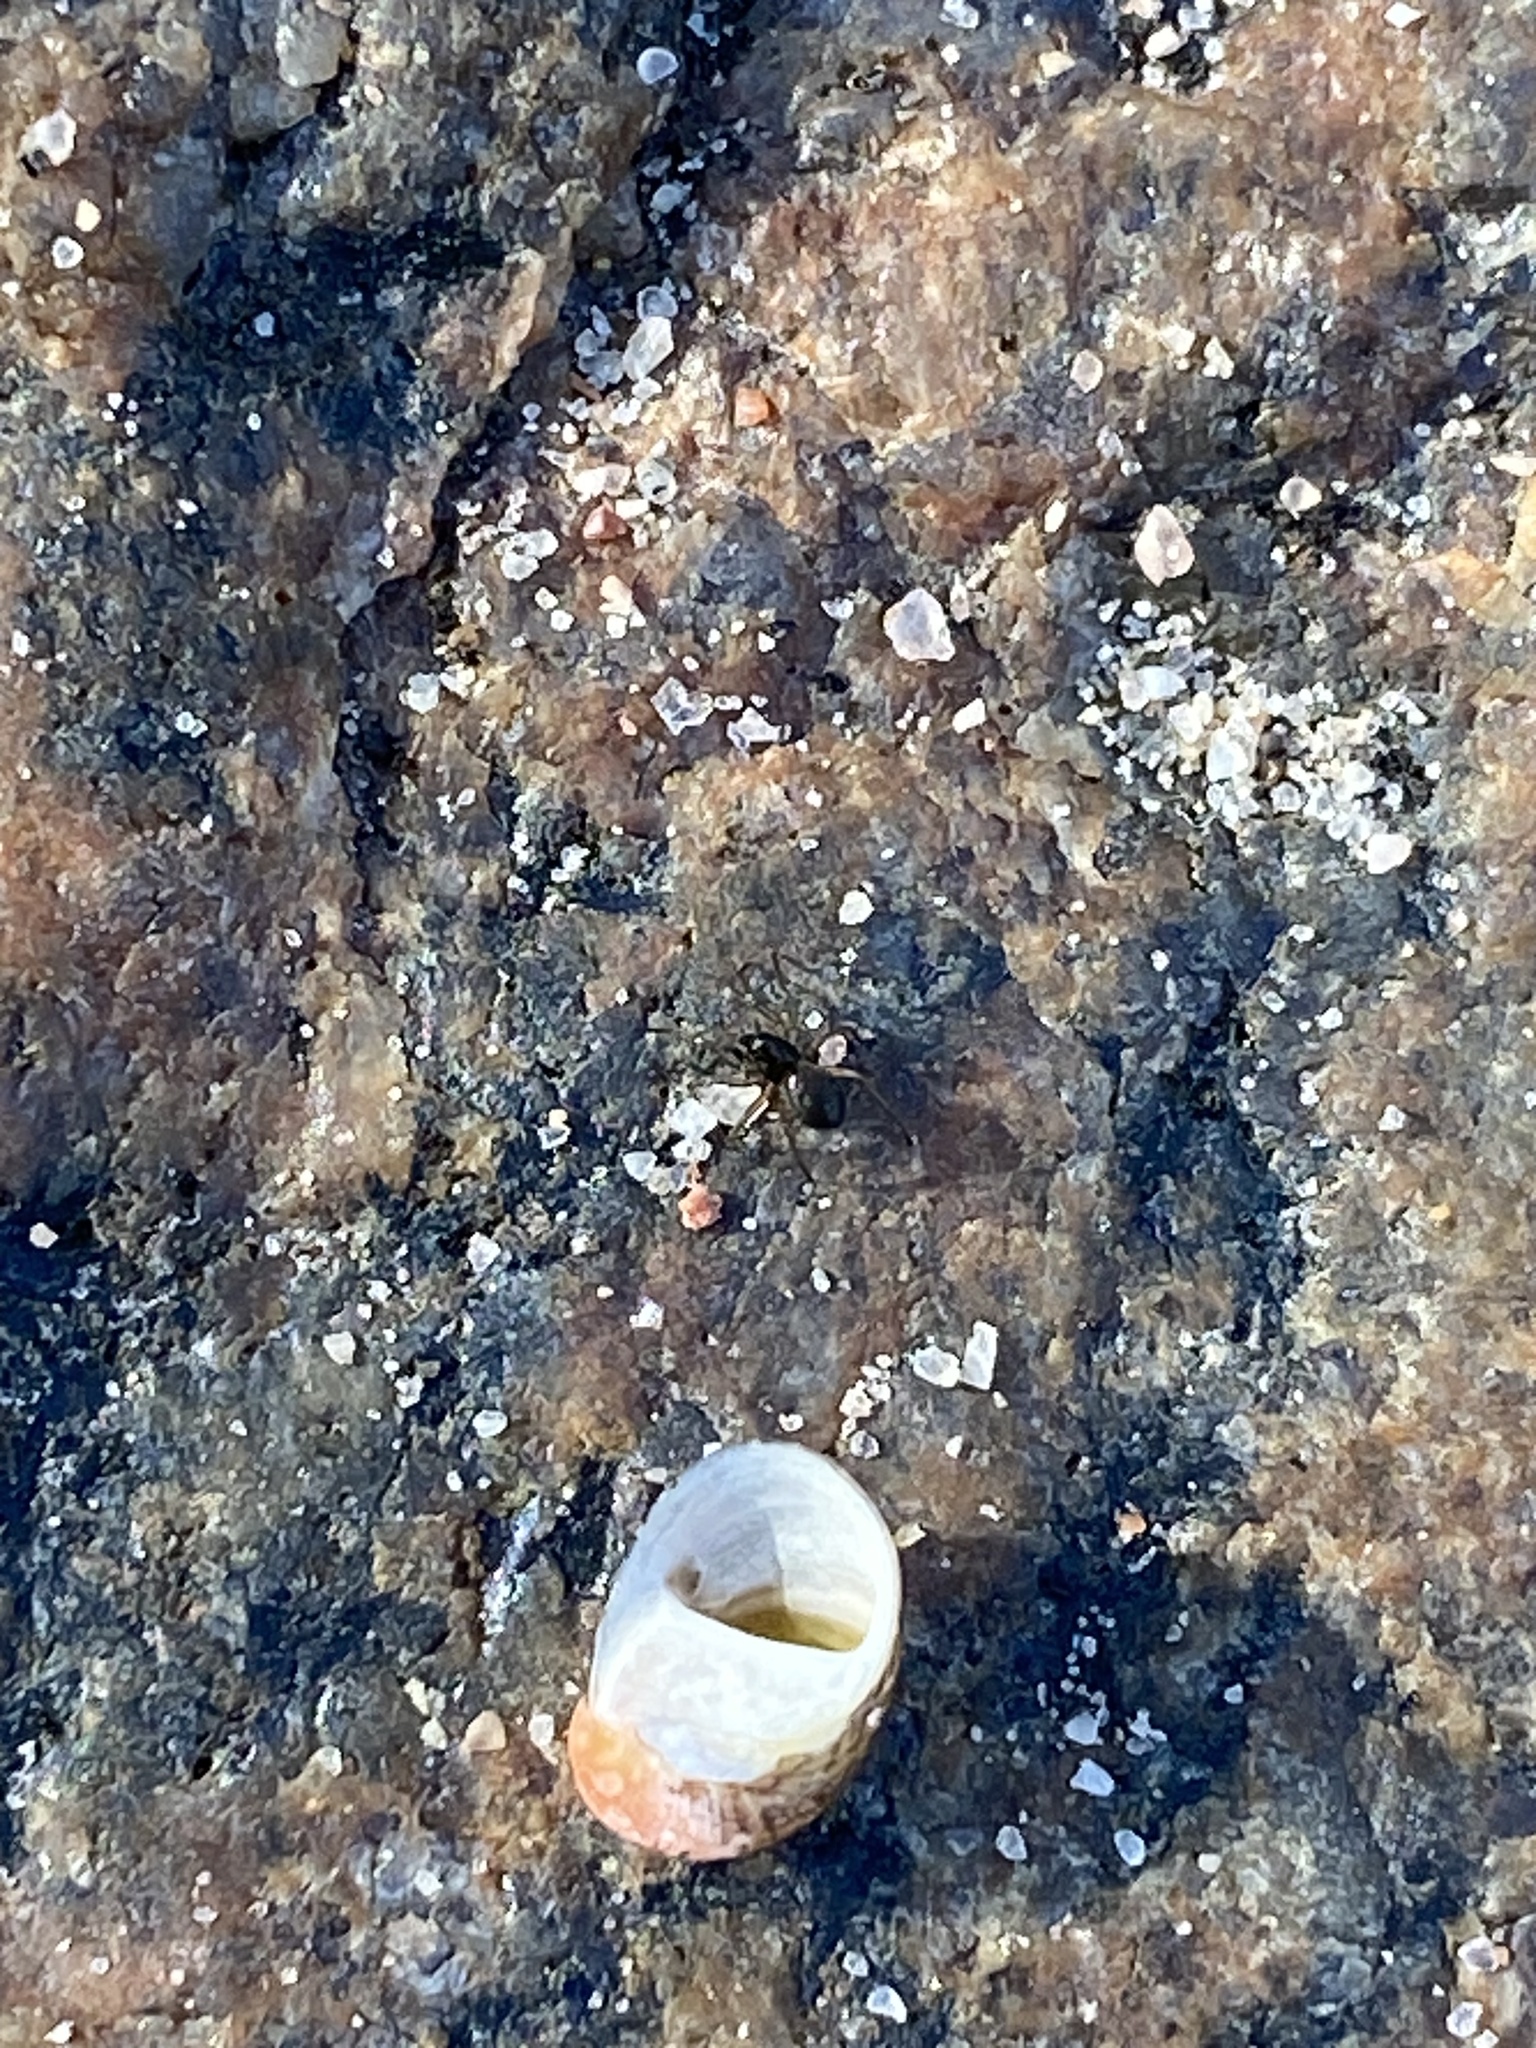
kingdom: Animalia
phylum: Mollusca
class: Gastropoda
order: Cycloneritida
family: Neritidae
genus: Theodoxus
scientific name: Theodoxus fluviatilis
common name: River nerite
